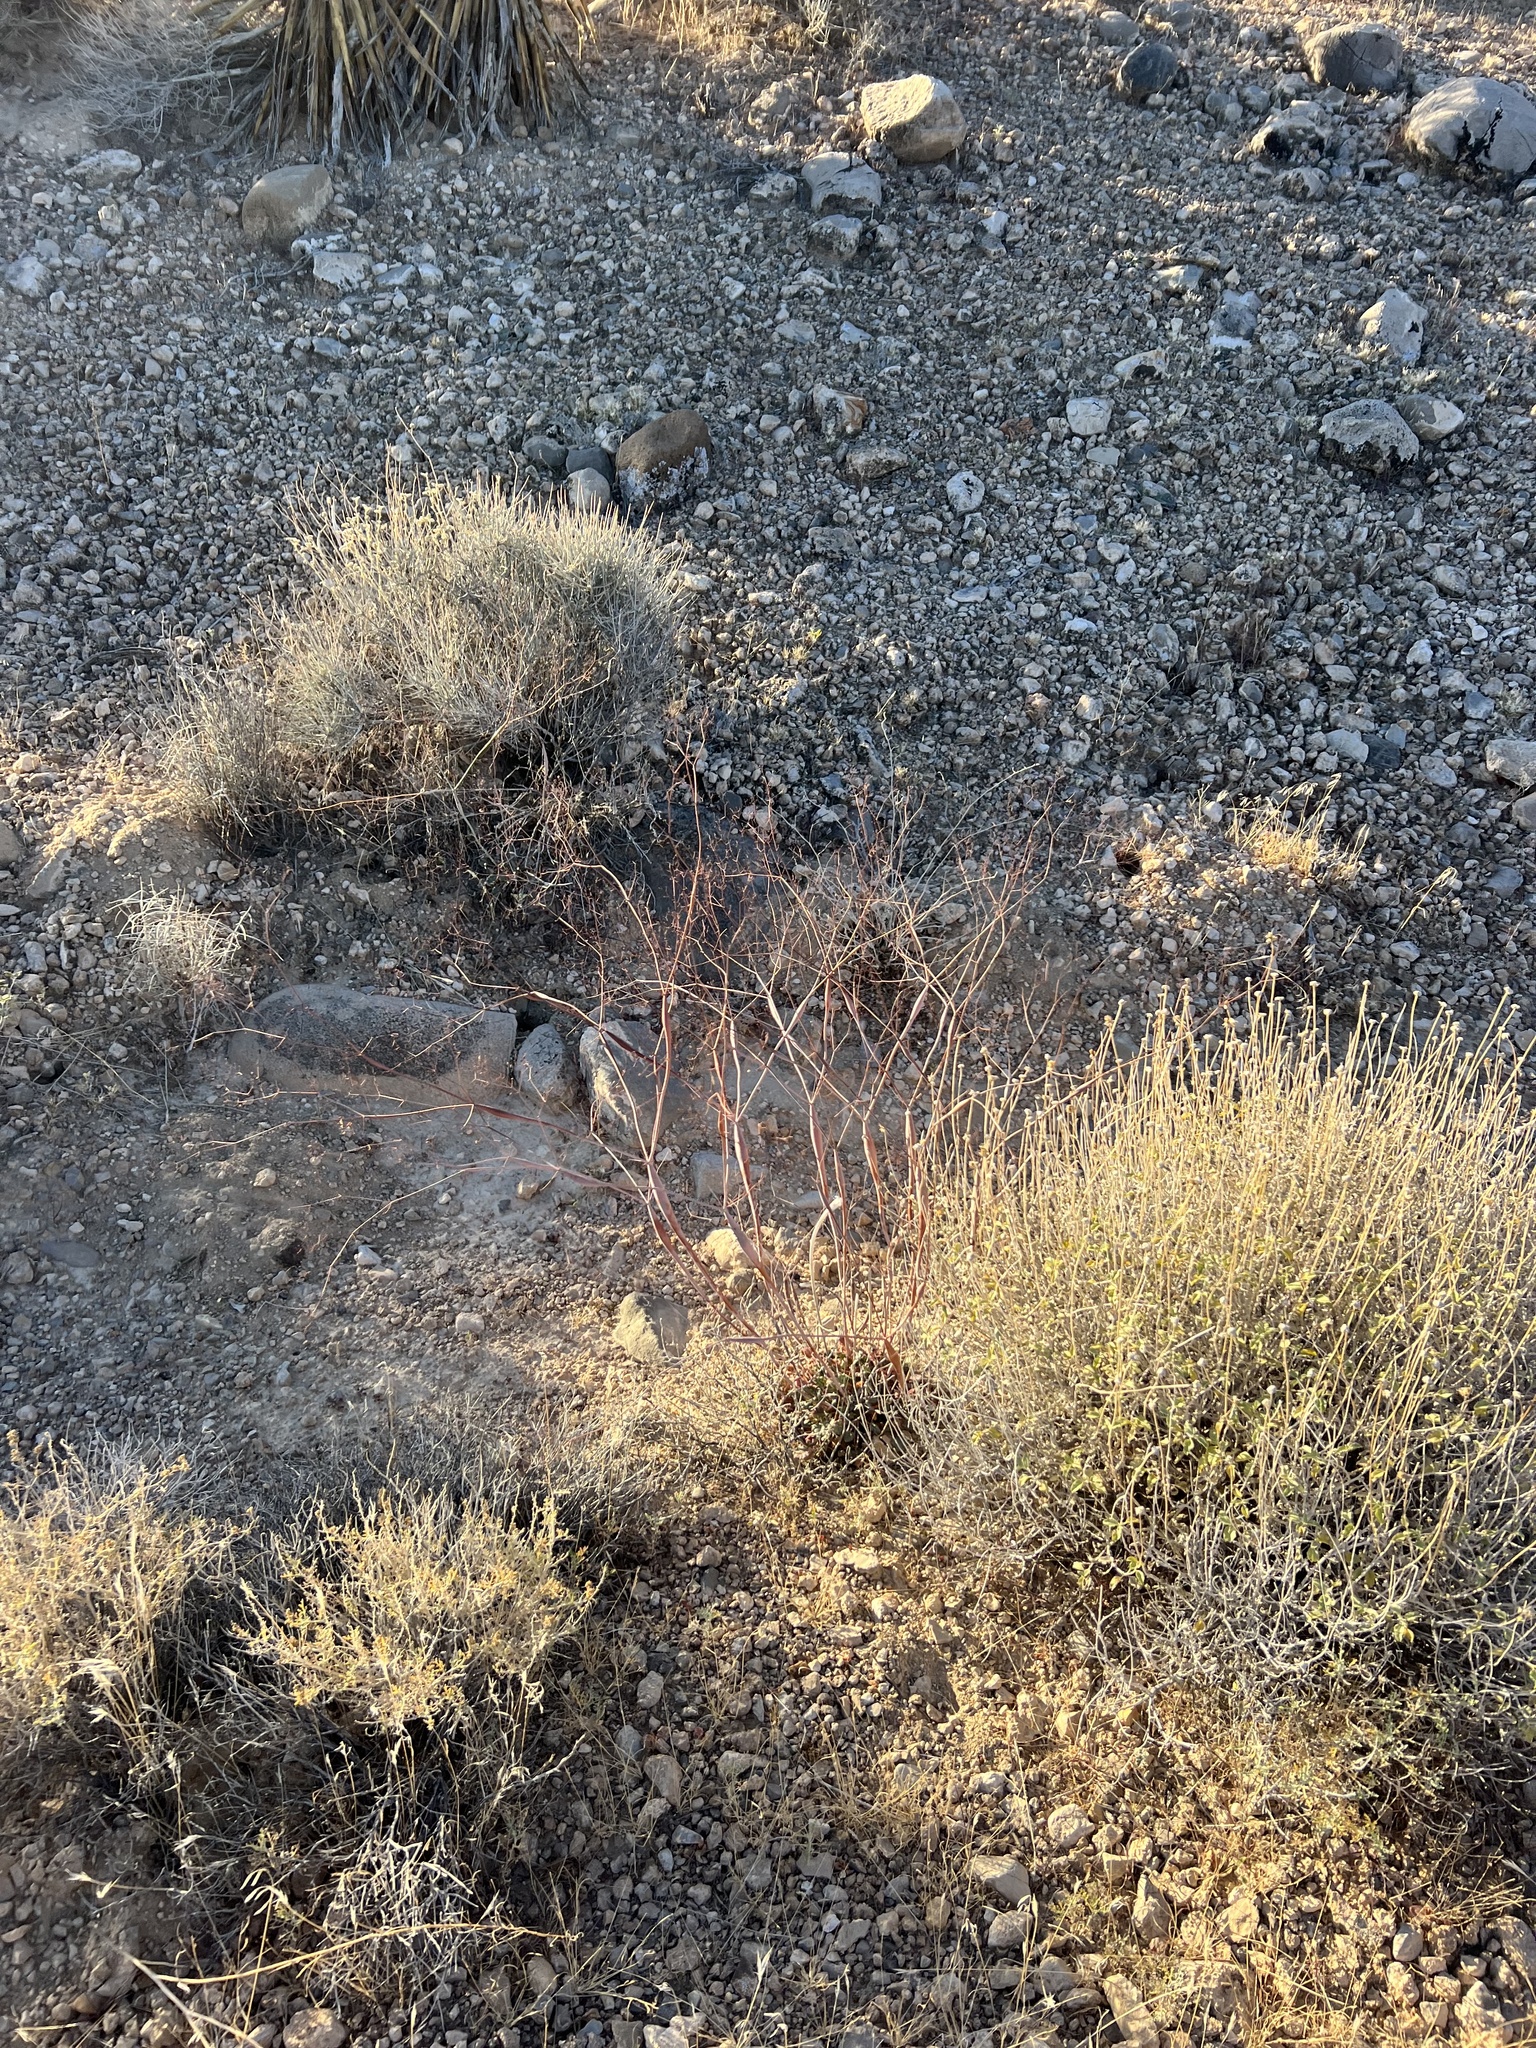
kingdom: Plantae
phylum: Tracheophyta
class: Magnoliopsida
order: Caryophyllales
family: Polygonaceae
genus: Eriogonum
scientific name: Eriogonum inflatum
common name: Desert trumpet
